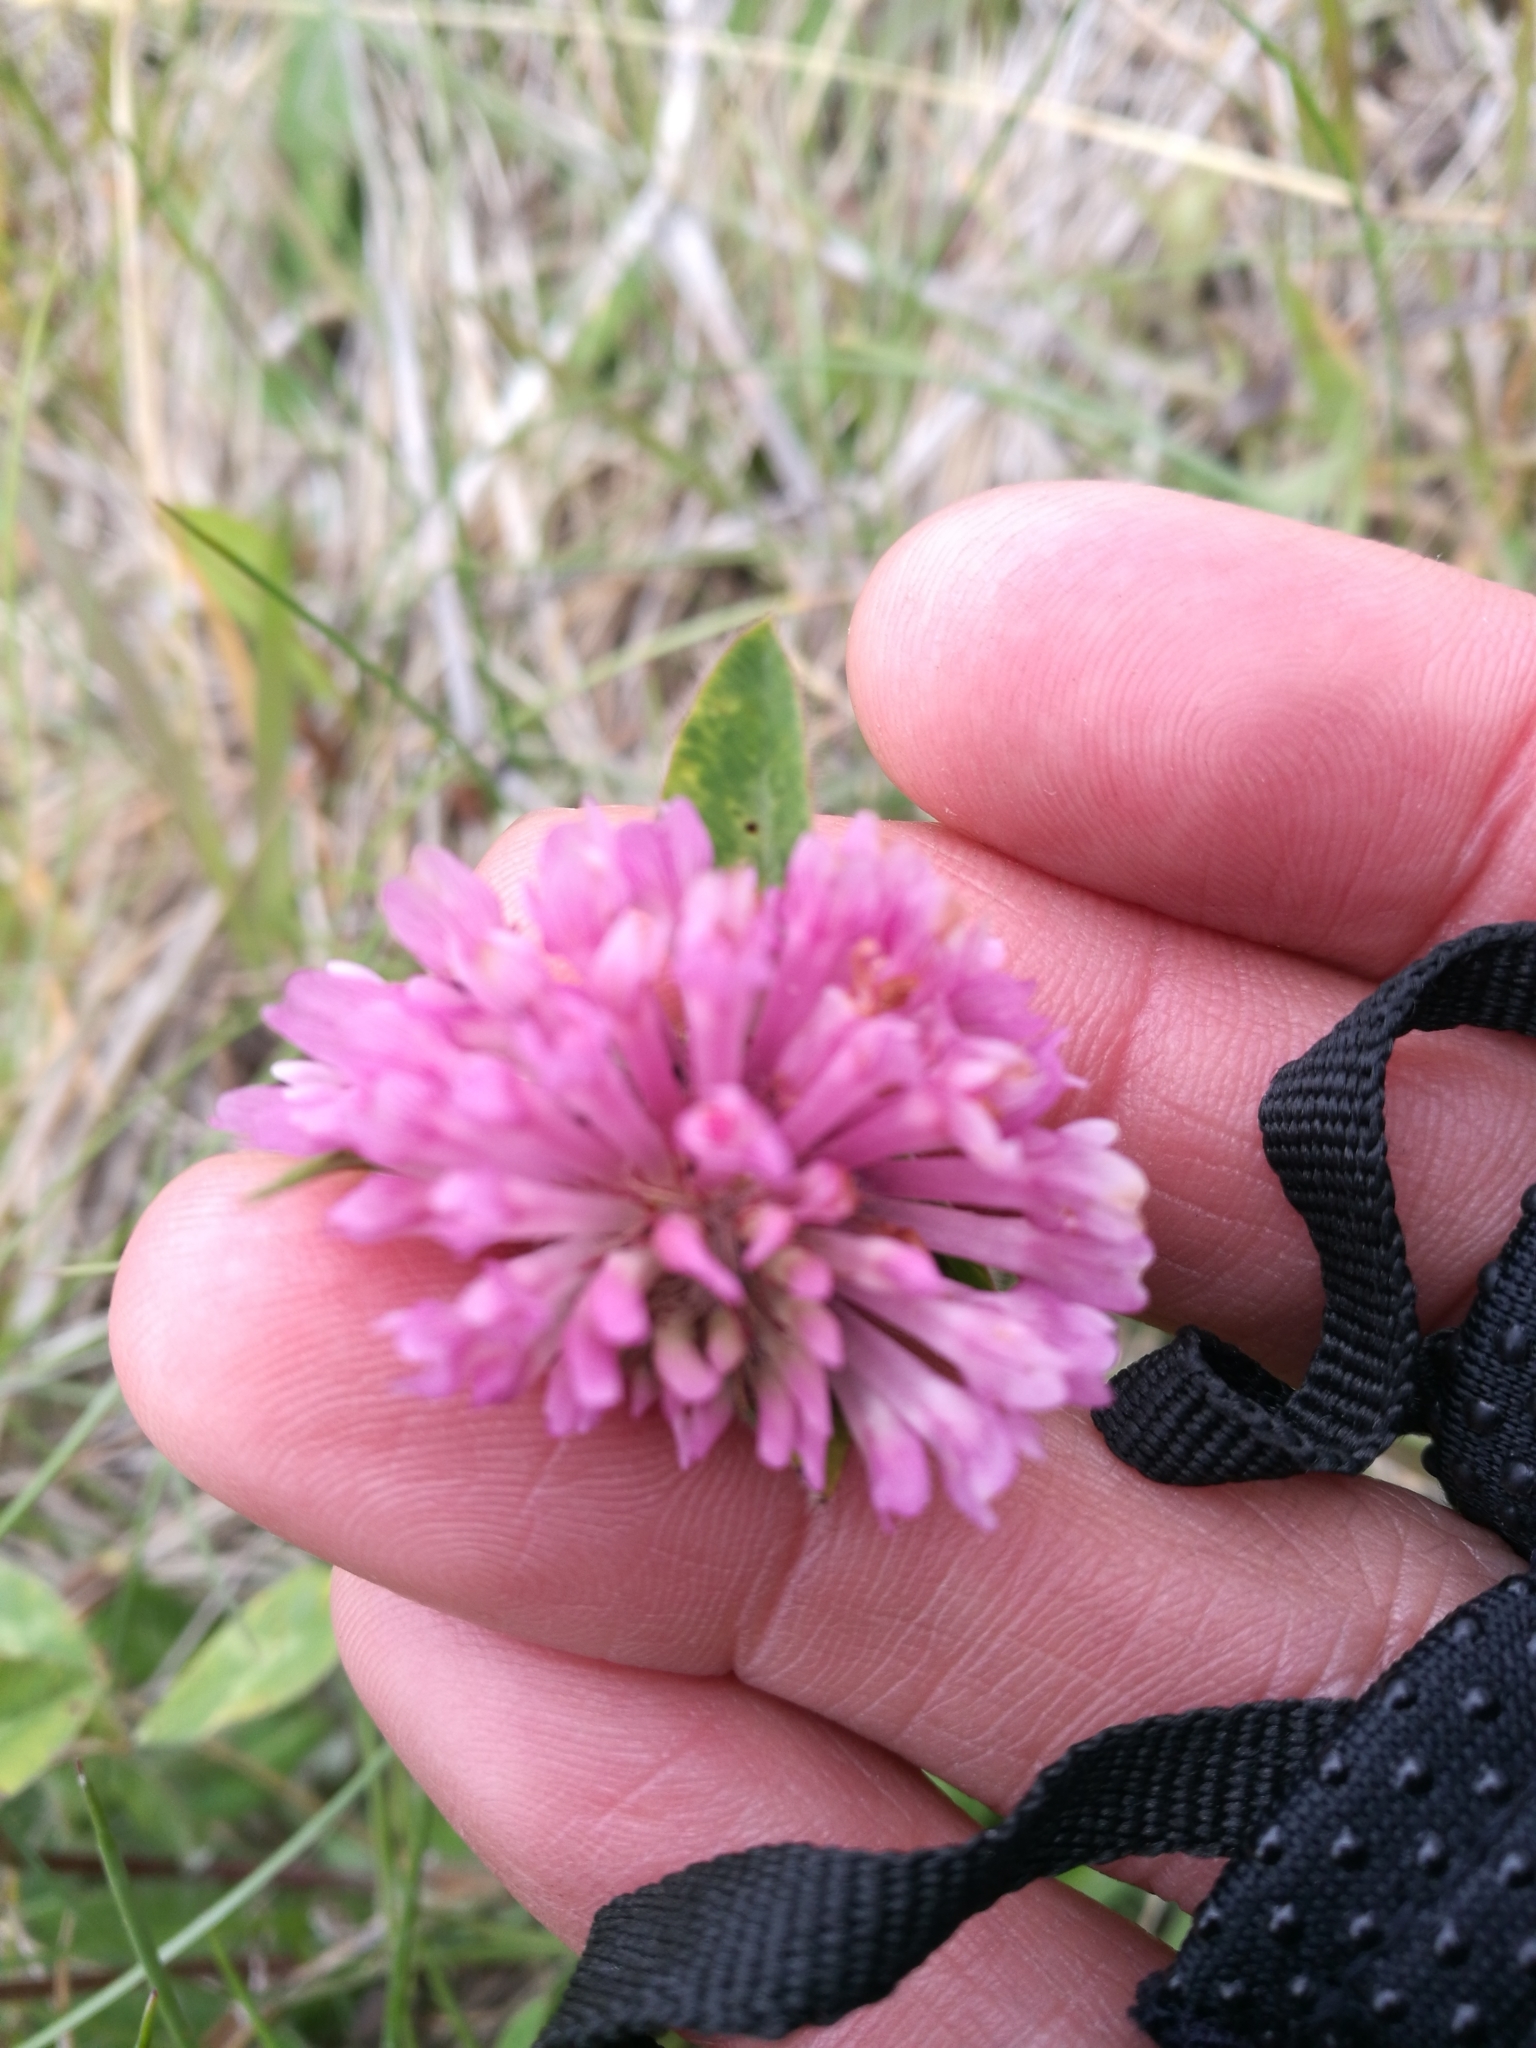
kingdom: Plantae
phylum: Tracheophyta
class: Magnoliopsida
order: Fabales
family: Fabaceae
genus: Trifolium
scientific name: Trifolium pratense
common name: Red clover
